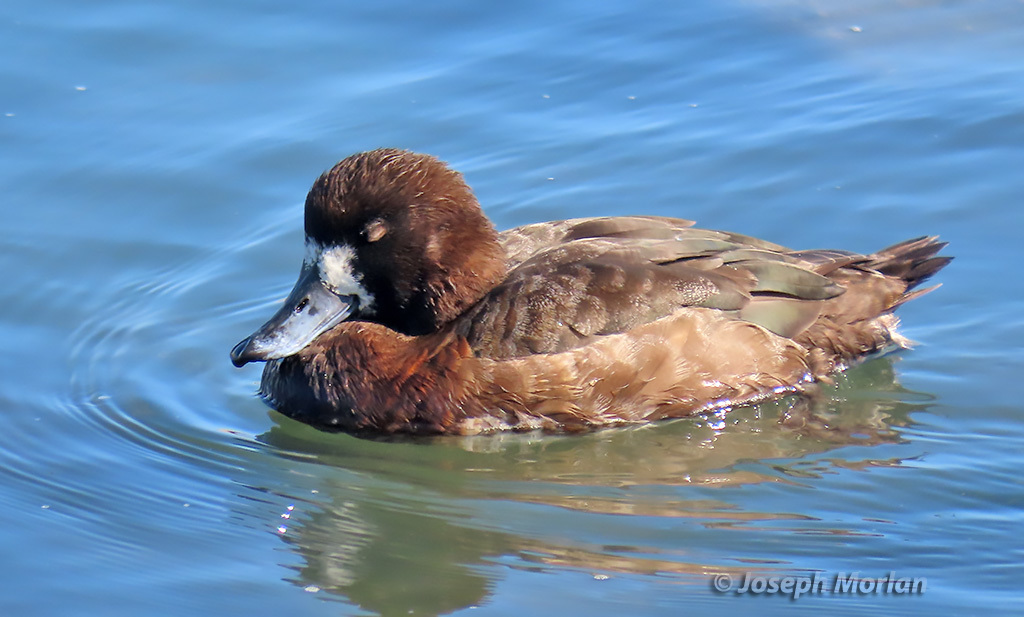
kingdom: Animalia
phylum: Chordata
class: Aves
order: Anseriformes
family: Anatidae
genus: Aythya
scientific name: Aythya marila
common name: Greater scaup
